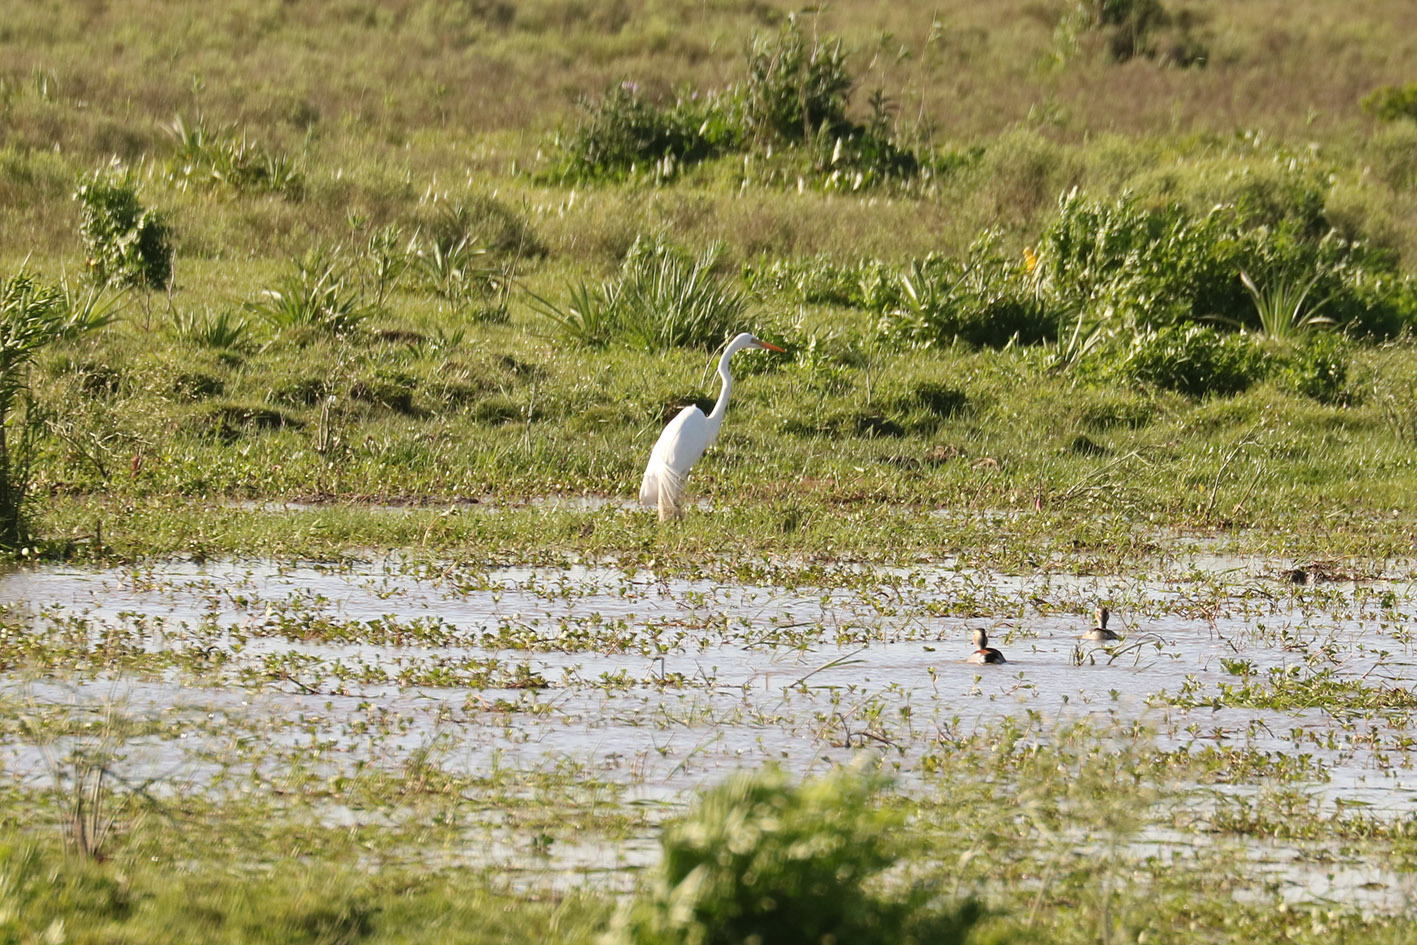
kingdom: Animalia
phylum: Chordata
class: Aves
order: Pelecaniformes
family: Ardeidae
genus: Ardea
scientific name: Ardea alba
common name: Great egret
